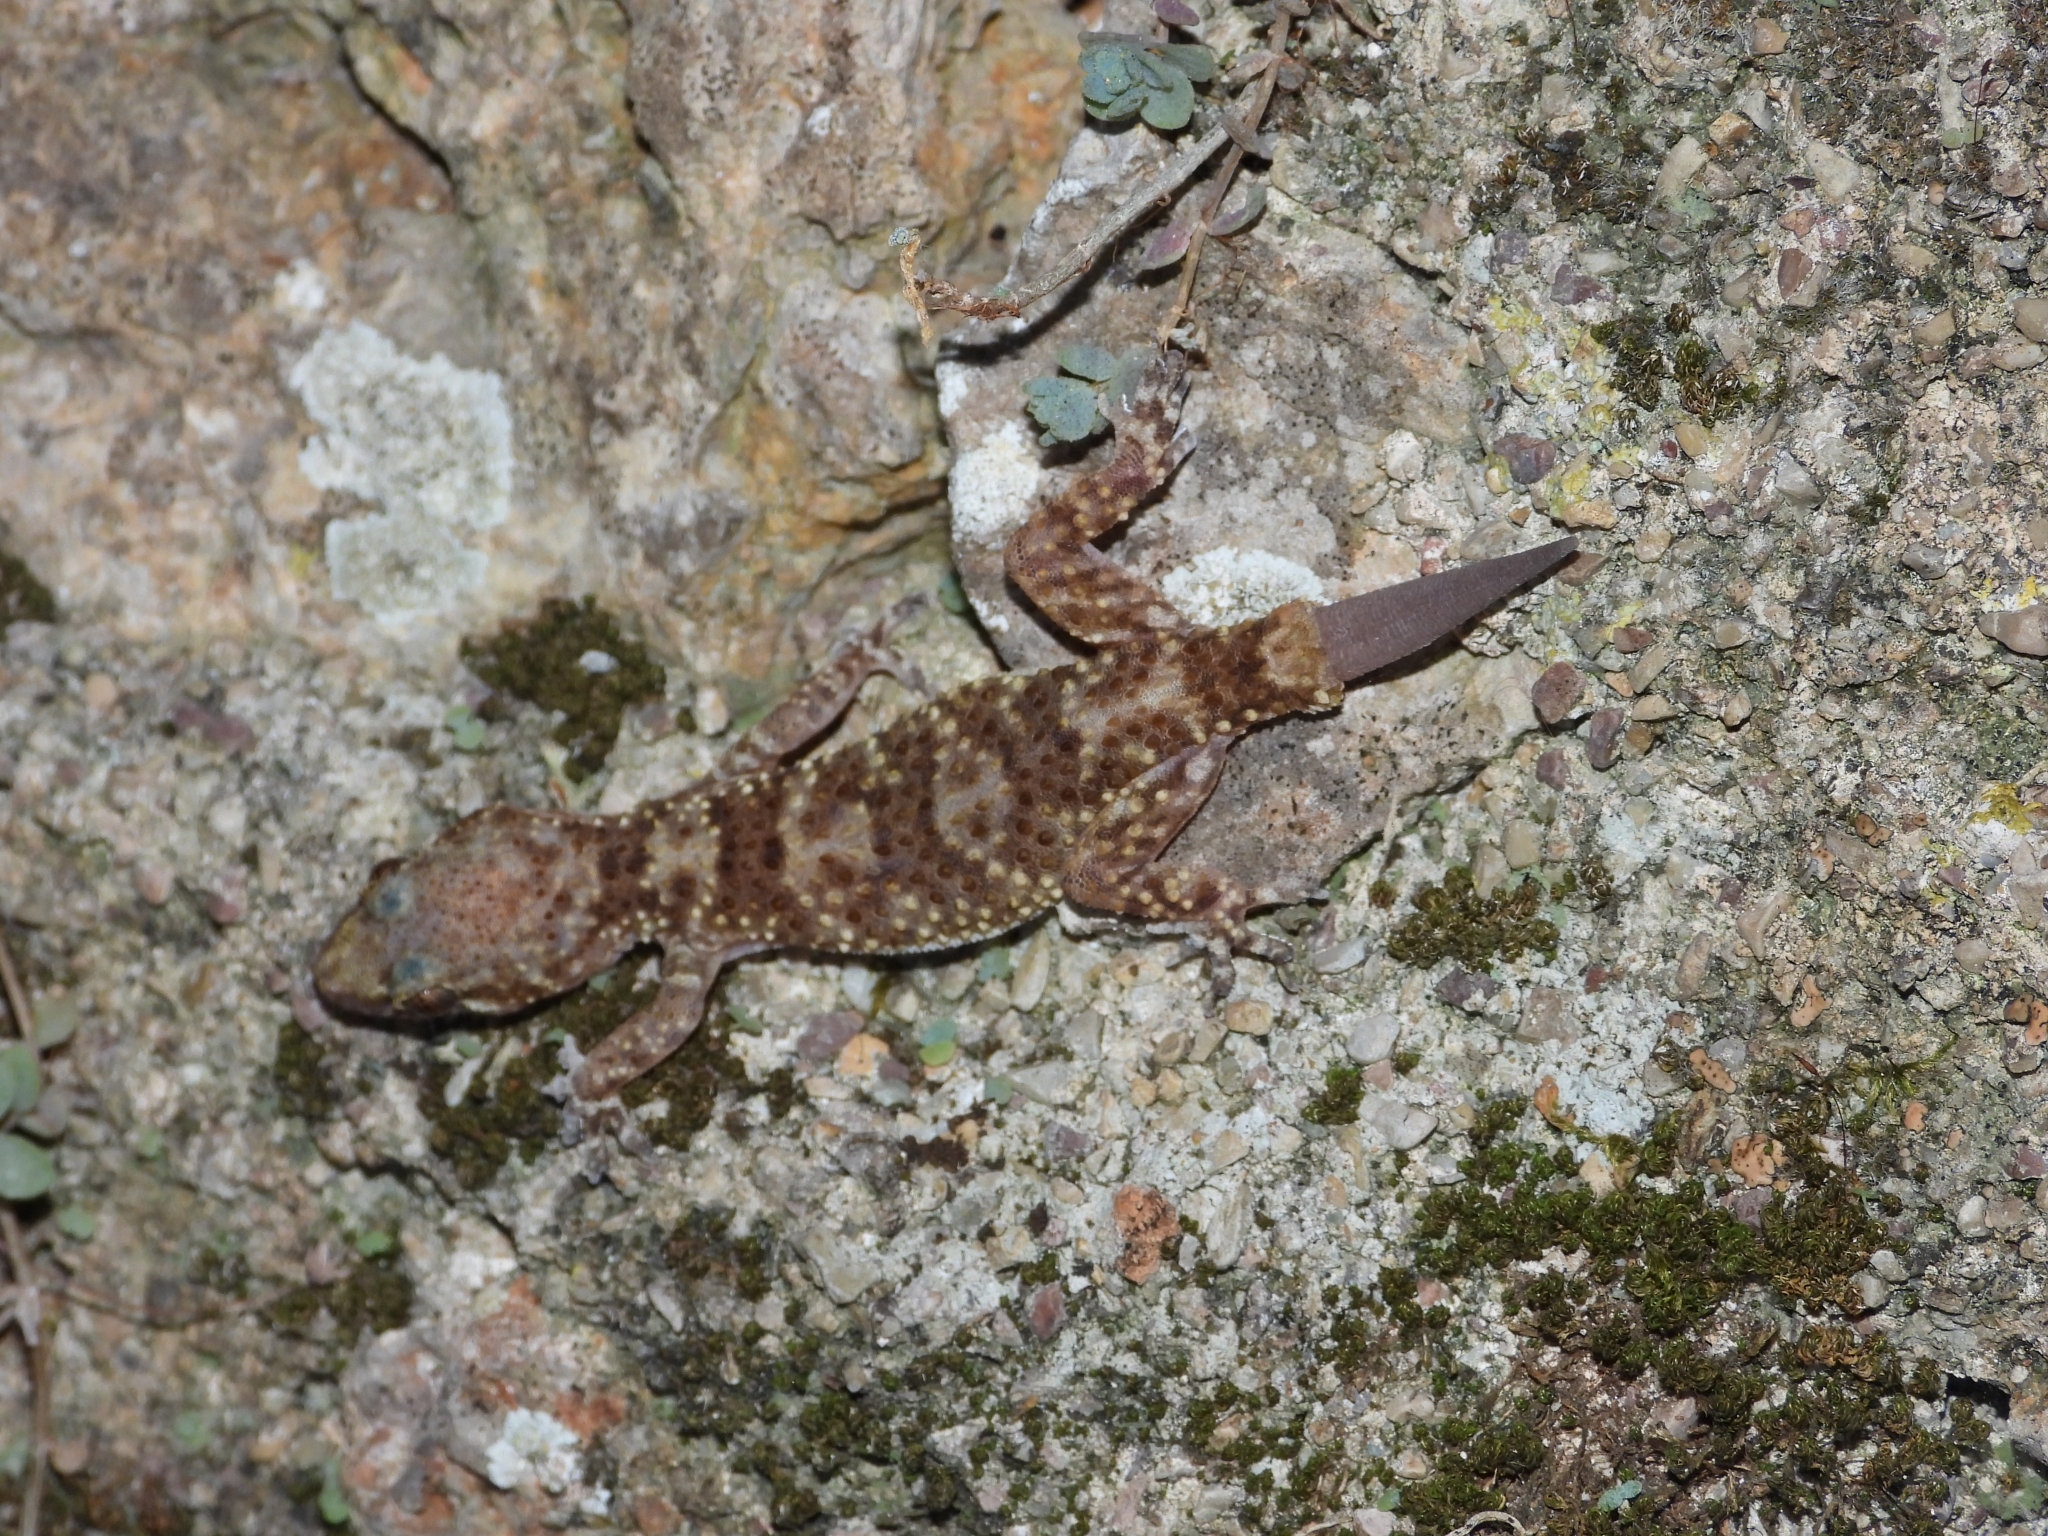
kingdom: Animalia
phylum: Chordata
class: Squamata
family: Gekkonidae
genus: Hemidactylus
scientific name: Hemidactylus turcicus
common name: Turkish gecko
